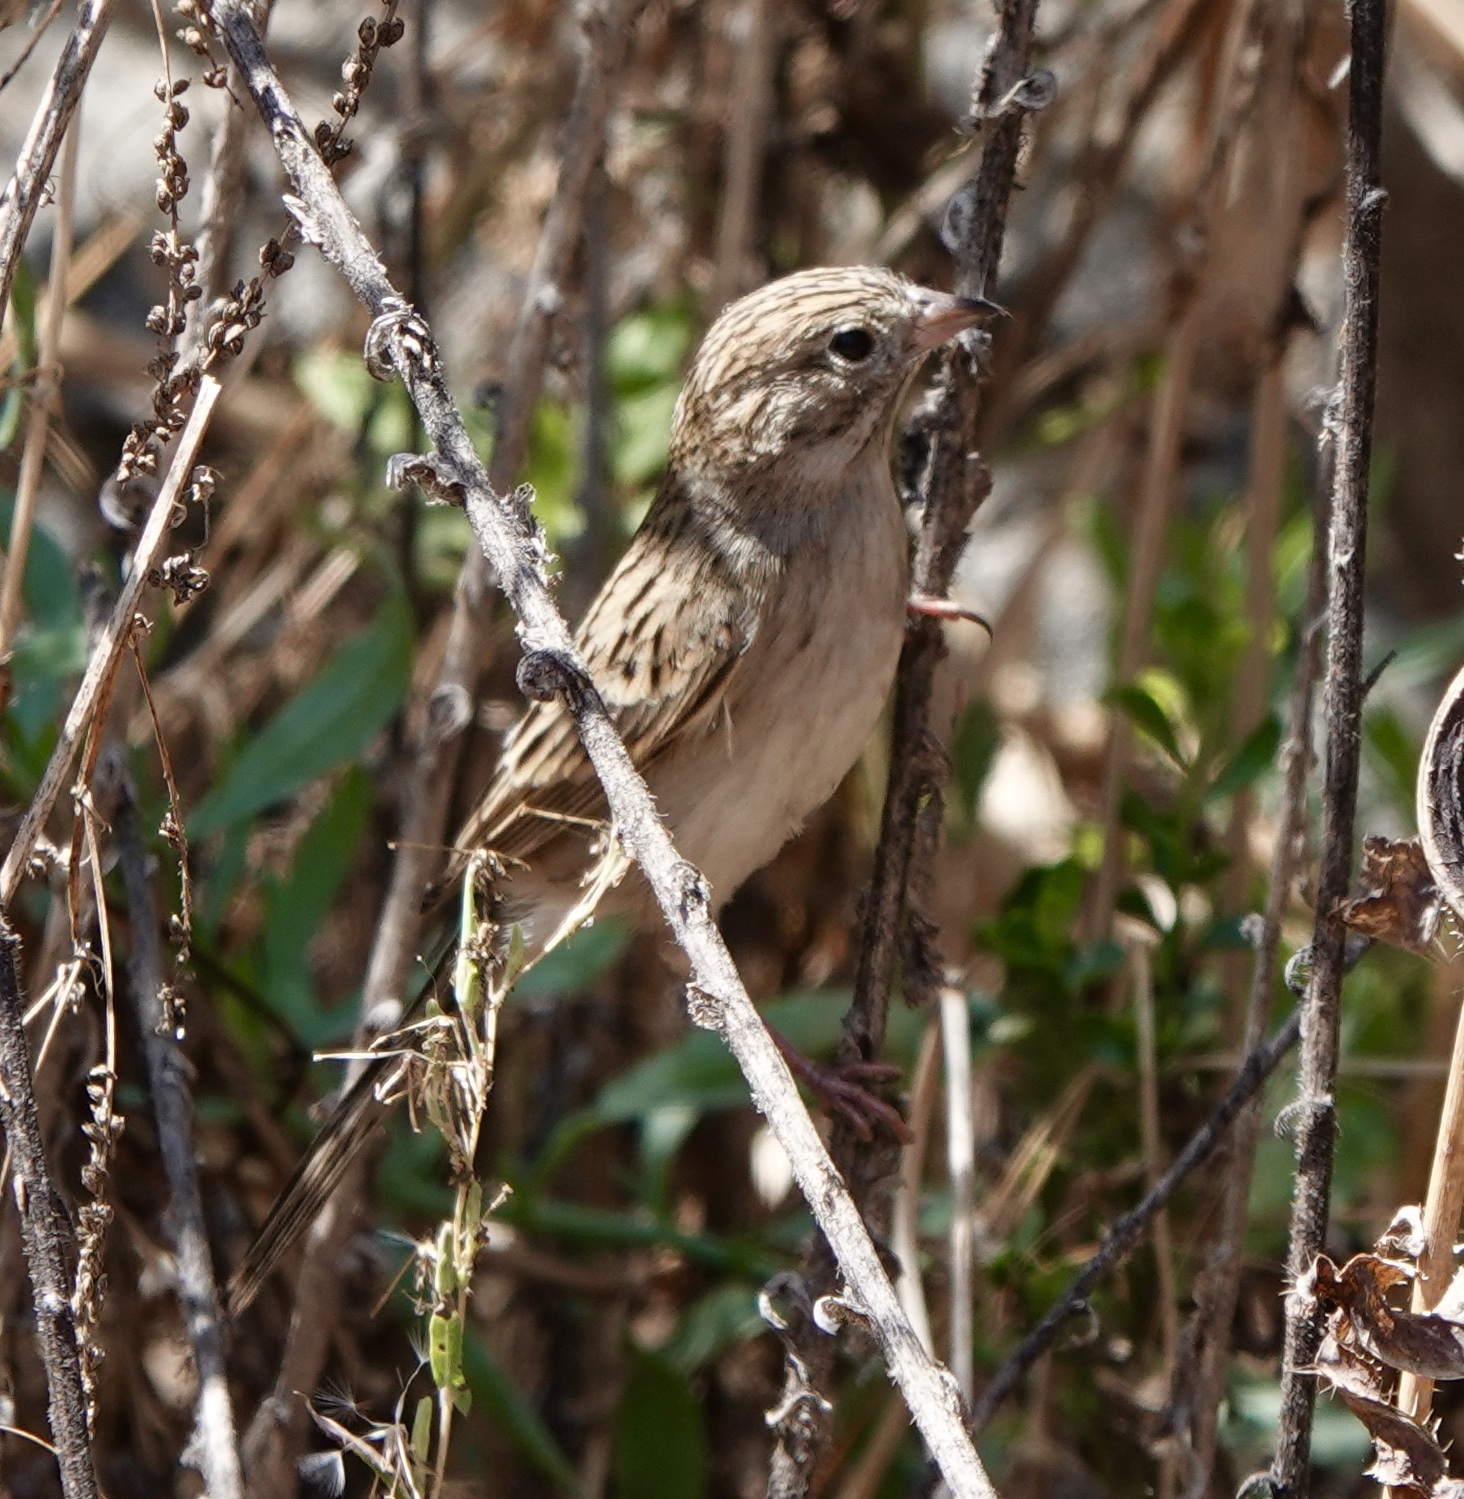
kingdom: Animalia
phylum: Chordata
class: Aves
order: Passeriformes
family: Passerellidae
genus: Spizella
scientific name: Spizella breweri
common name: Brewer's sparrow
